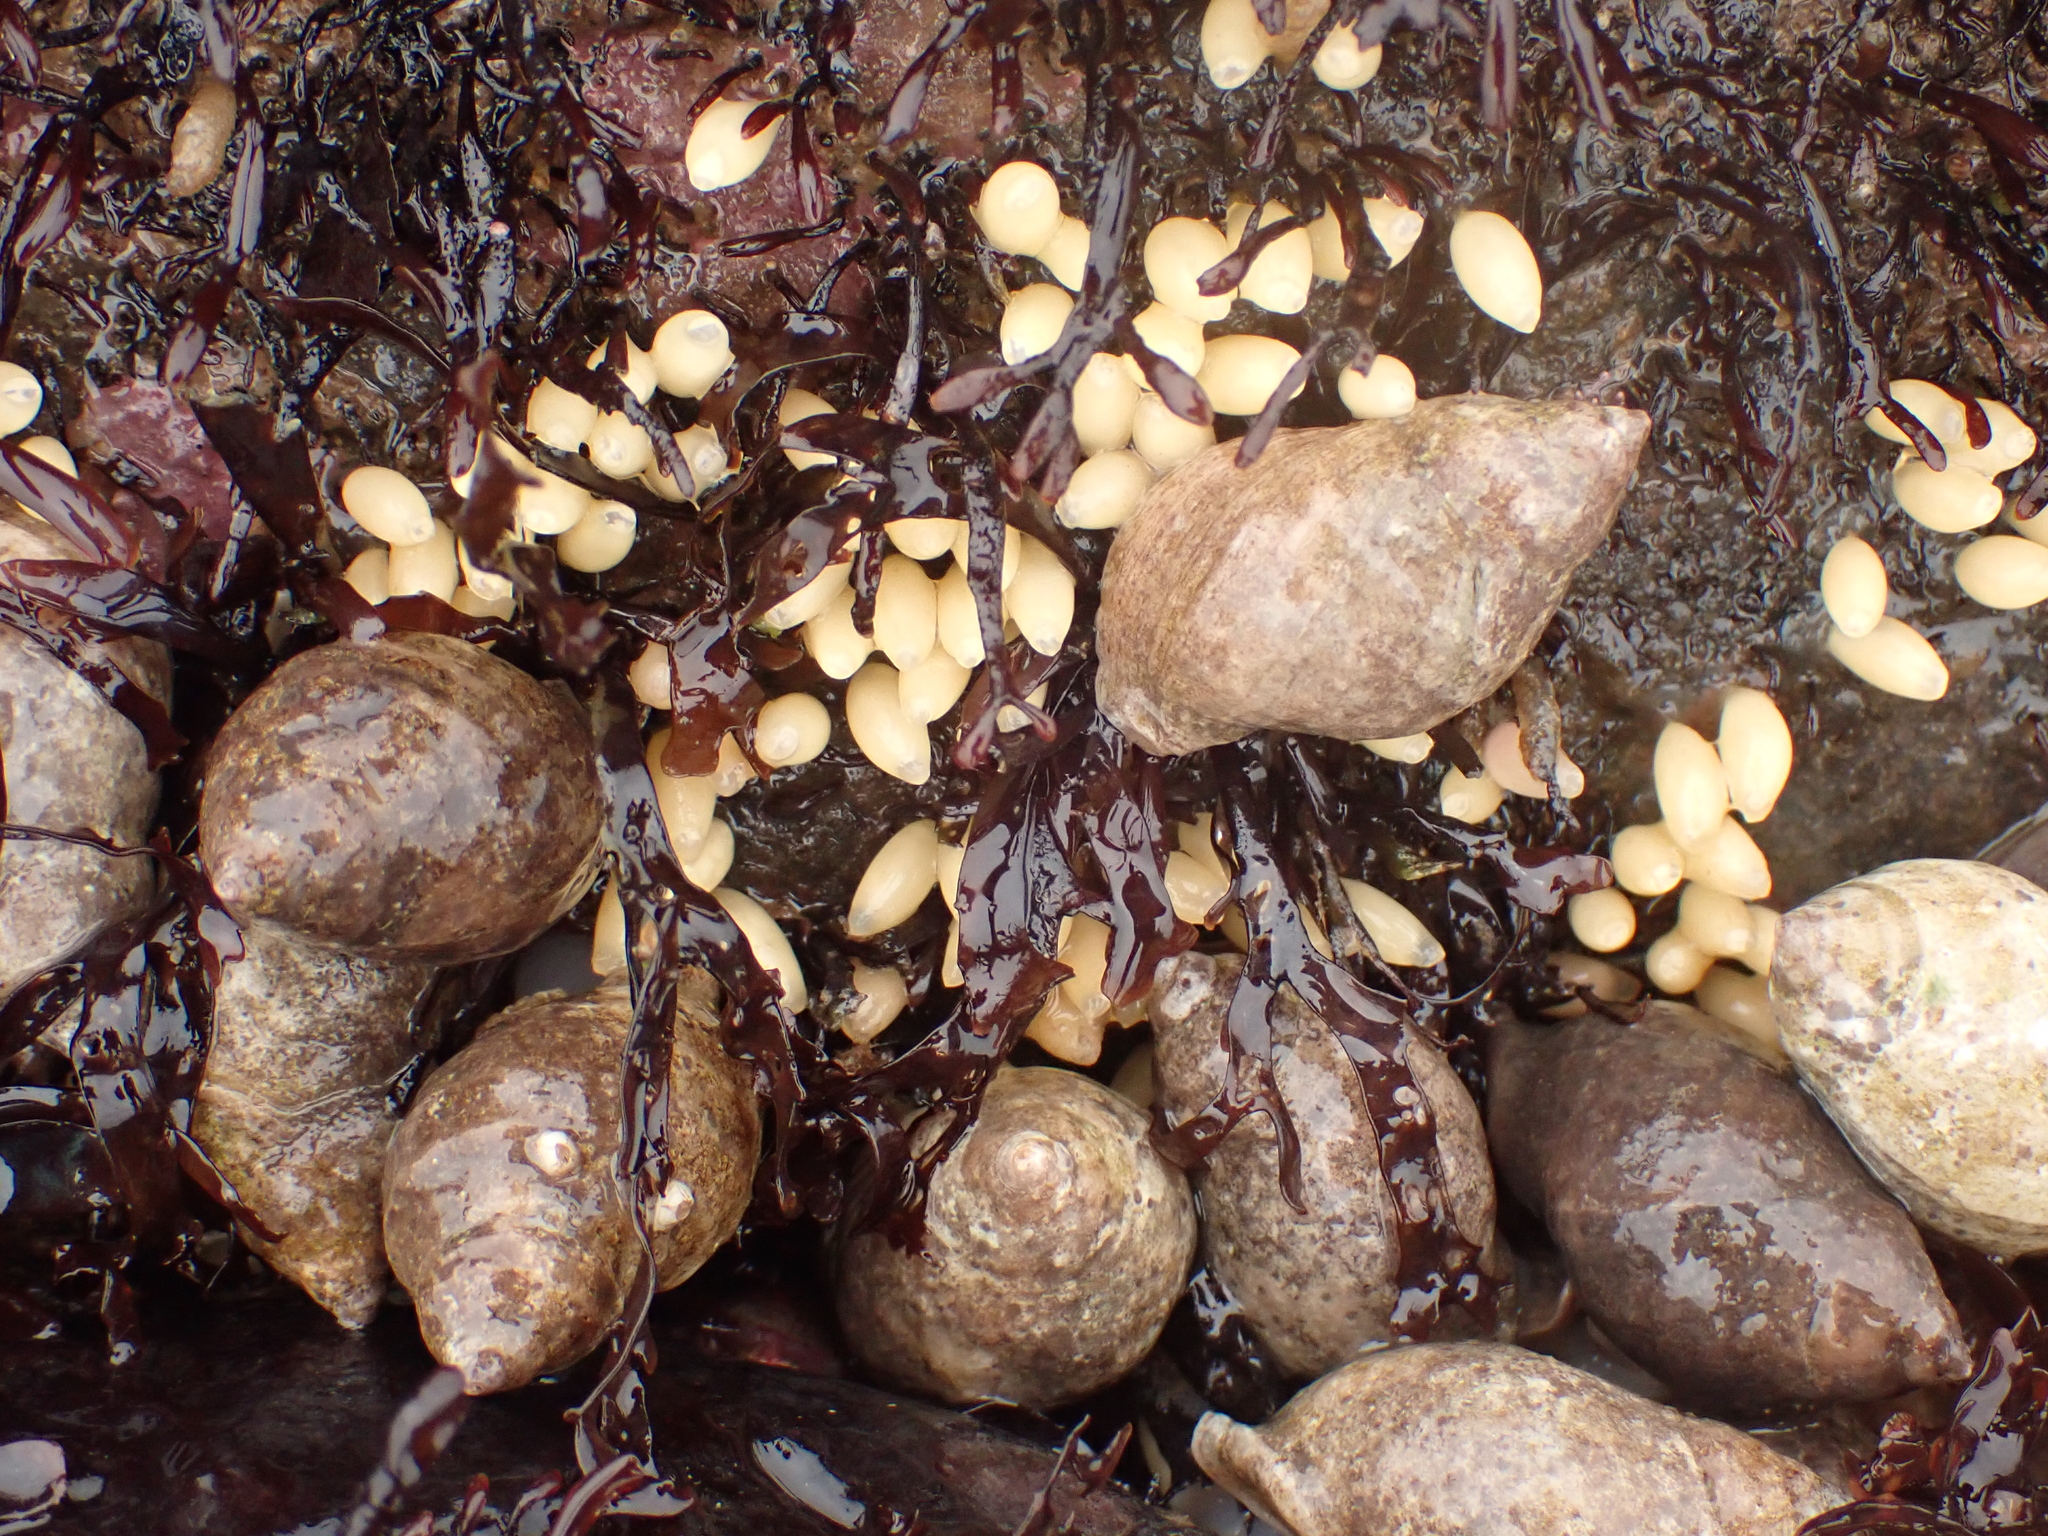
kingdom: Animalia
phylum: Mollusca
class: Gastropoda
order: Neogastropoda
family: Muricidae
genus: Nucella
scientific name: Nucella lapillus
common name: Dog whelk
